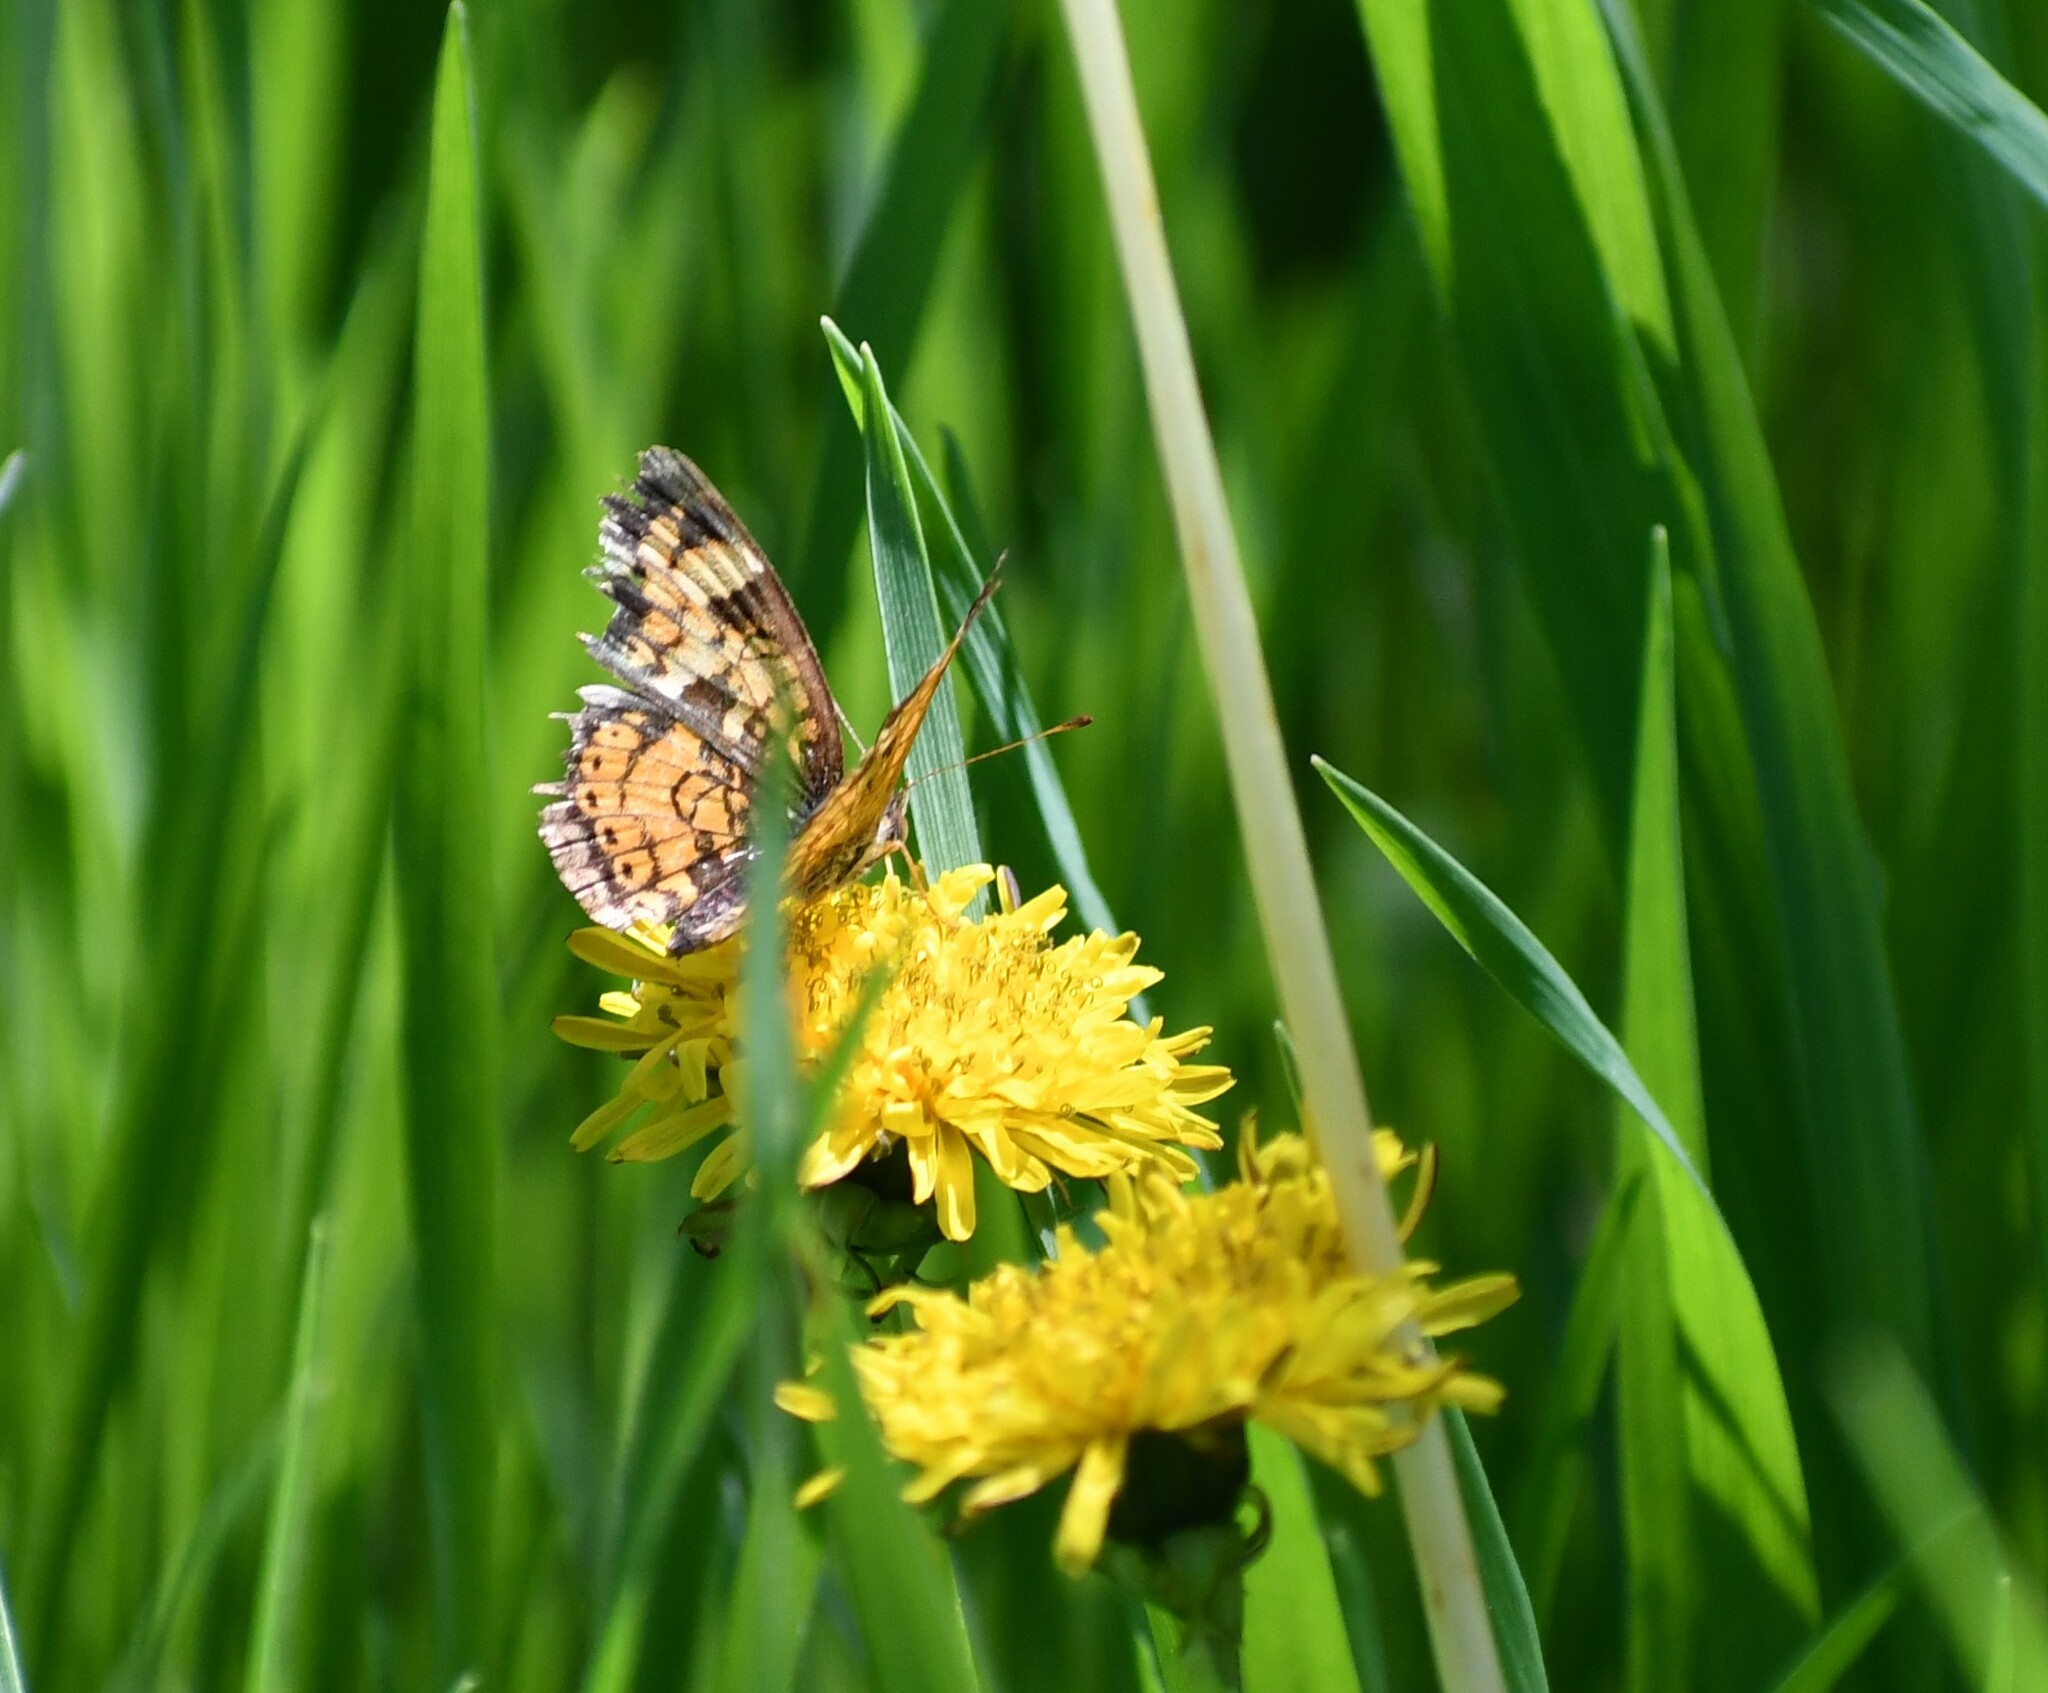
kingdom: Animalia
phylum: Arthropoda
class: Insecta
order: Lepidoptera
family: Nymphalidae
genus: Phyciodes
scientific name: Phyciodes tharos
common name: Pearl crescent
